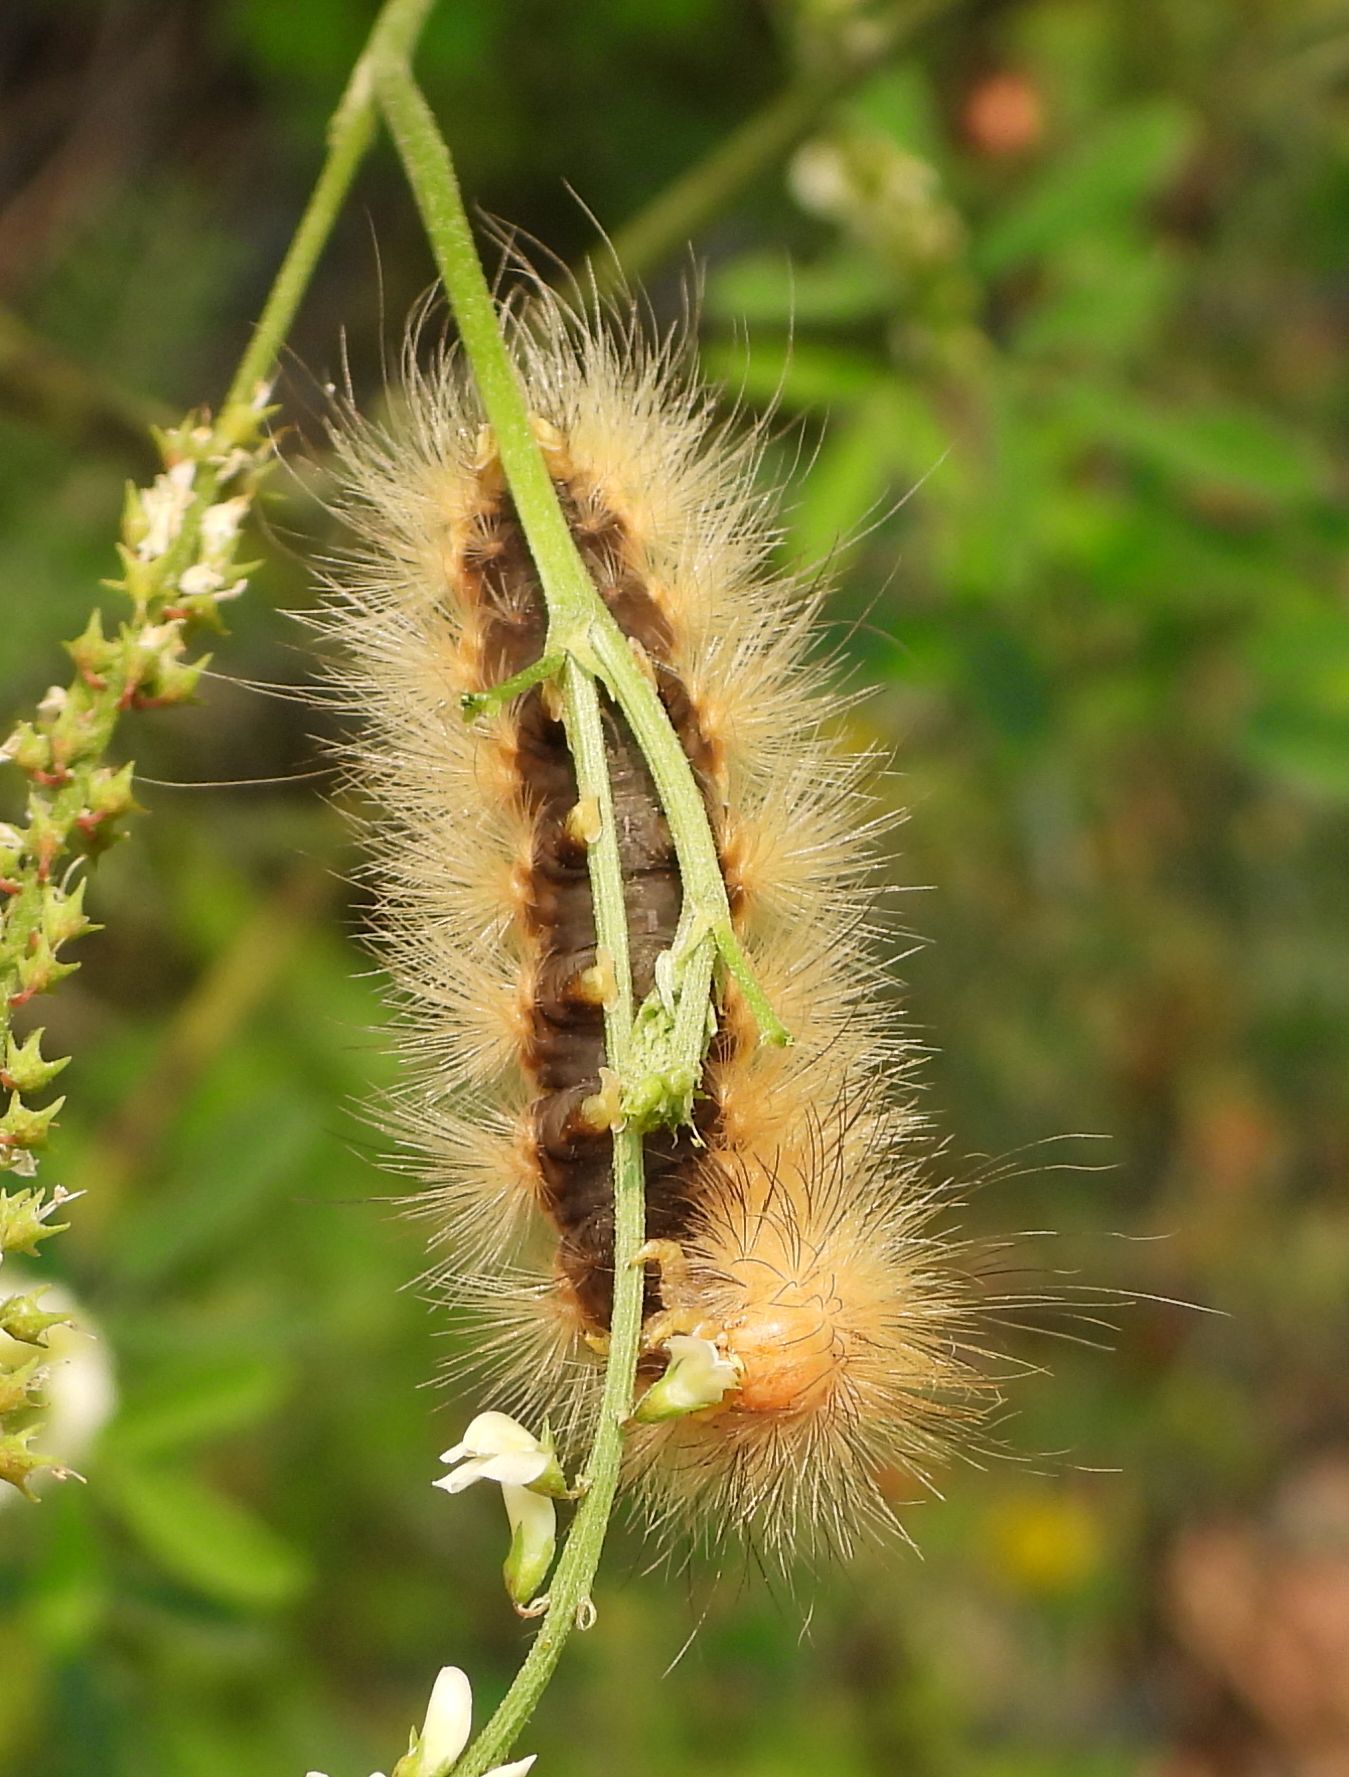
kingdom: Animalia
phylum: Arthropoda
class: Insecta
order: Lepidoptera
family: Erebidae
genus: Spilosoma
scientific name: Spilosoma virginica
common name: Virginia tiger moth
